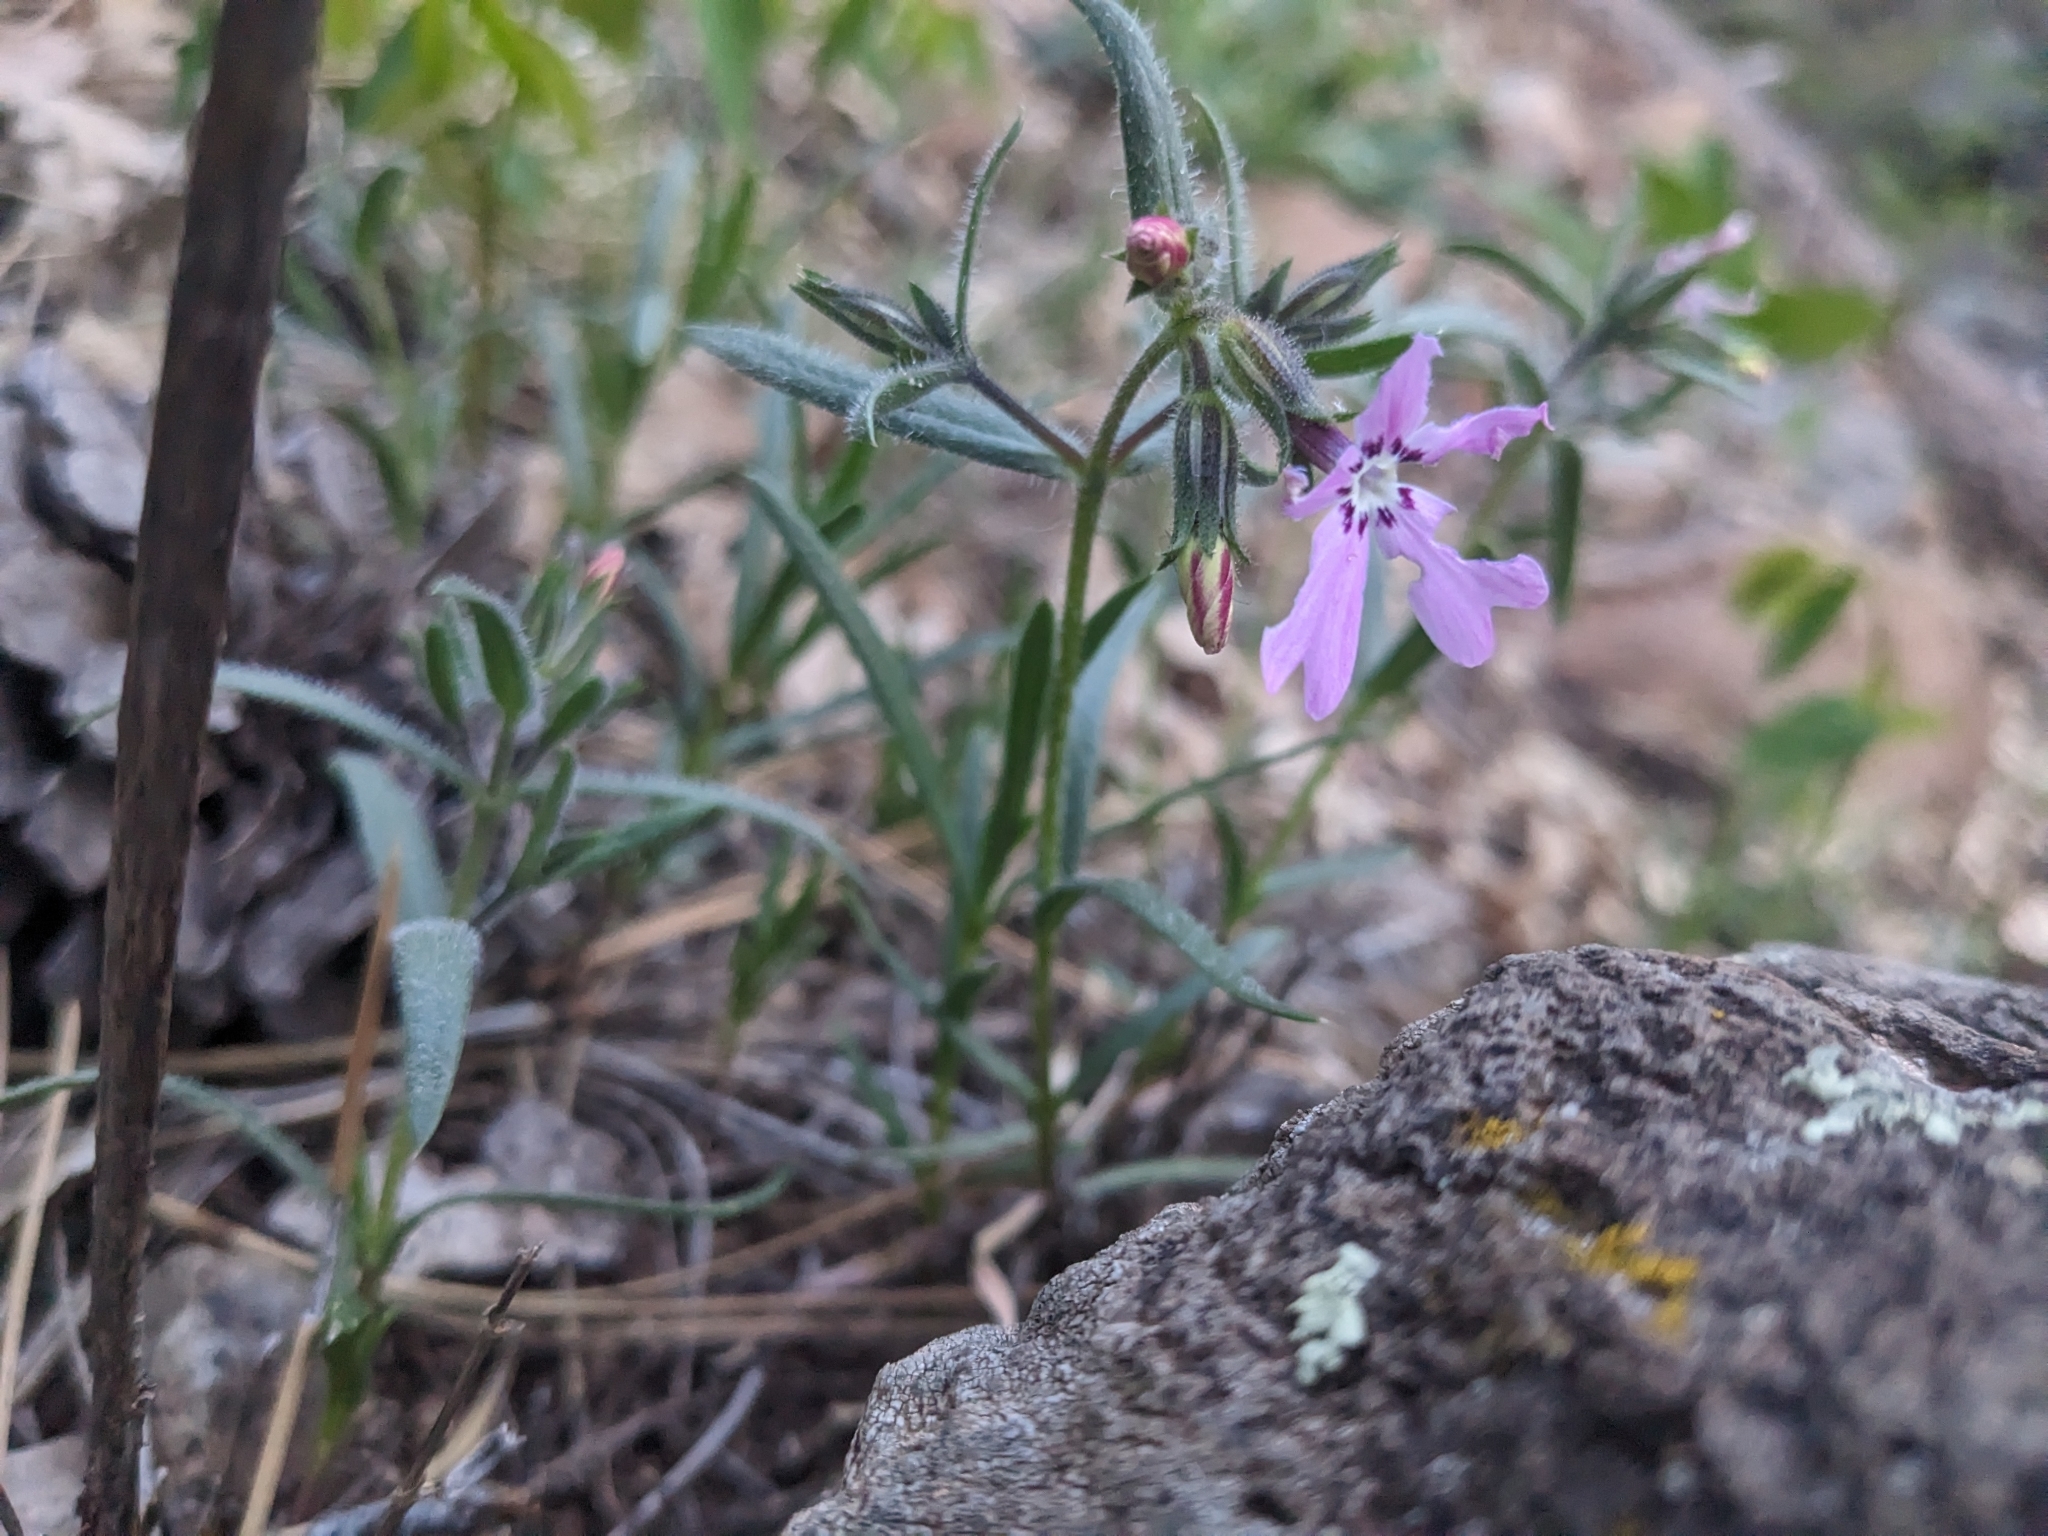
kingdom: Plantae
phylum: Tracheophyta
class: Magnoliopsida
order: Ericales
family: Polemoniaceae
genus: Phlox
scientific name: Phlox woodhousei
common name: Star phlox
